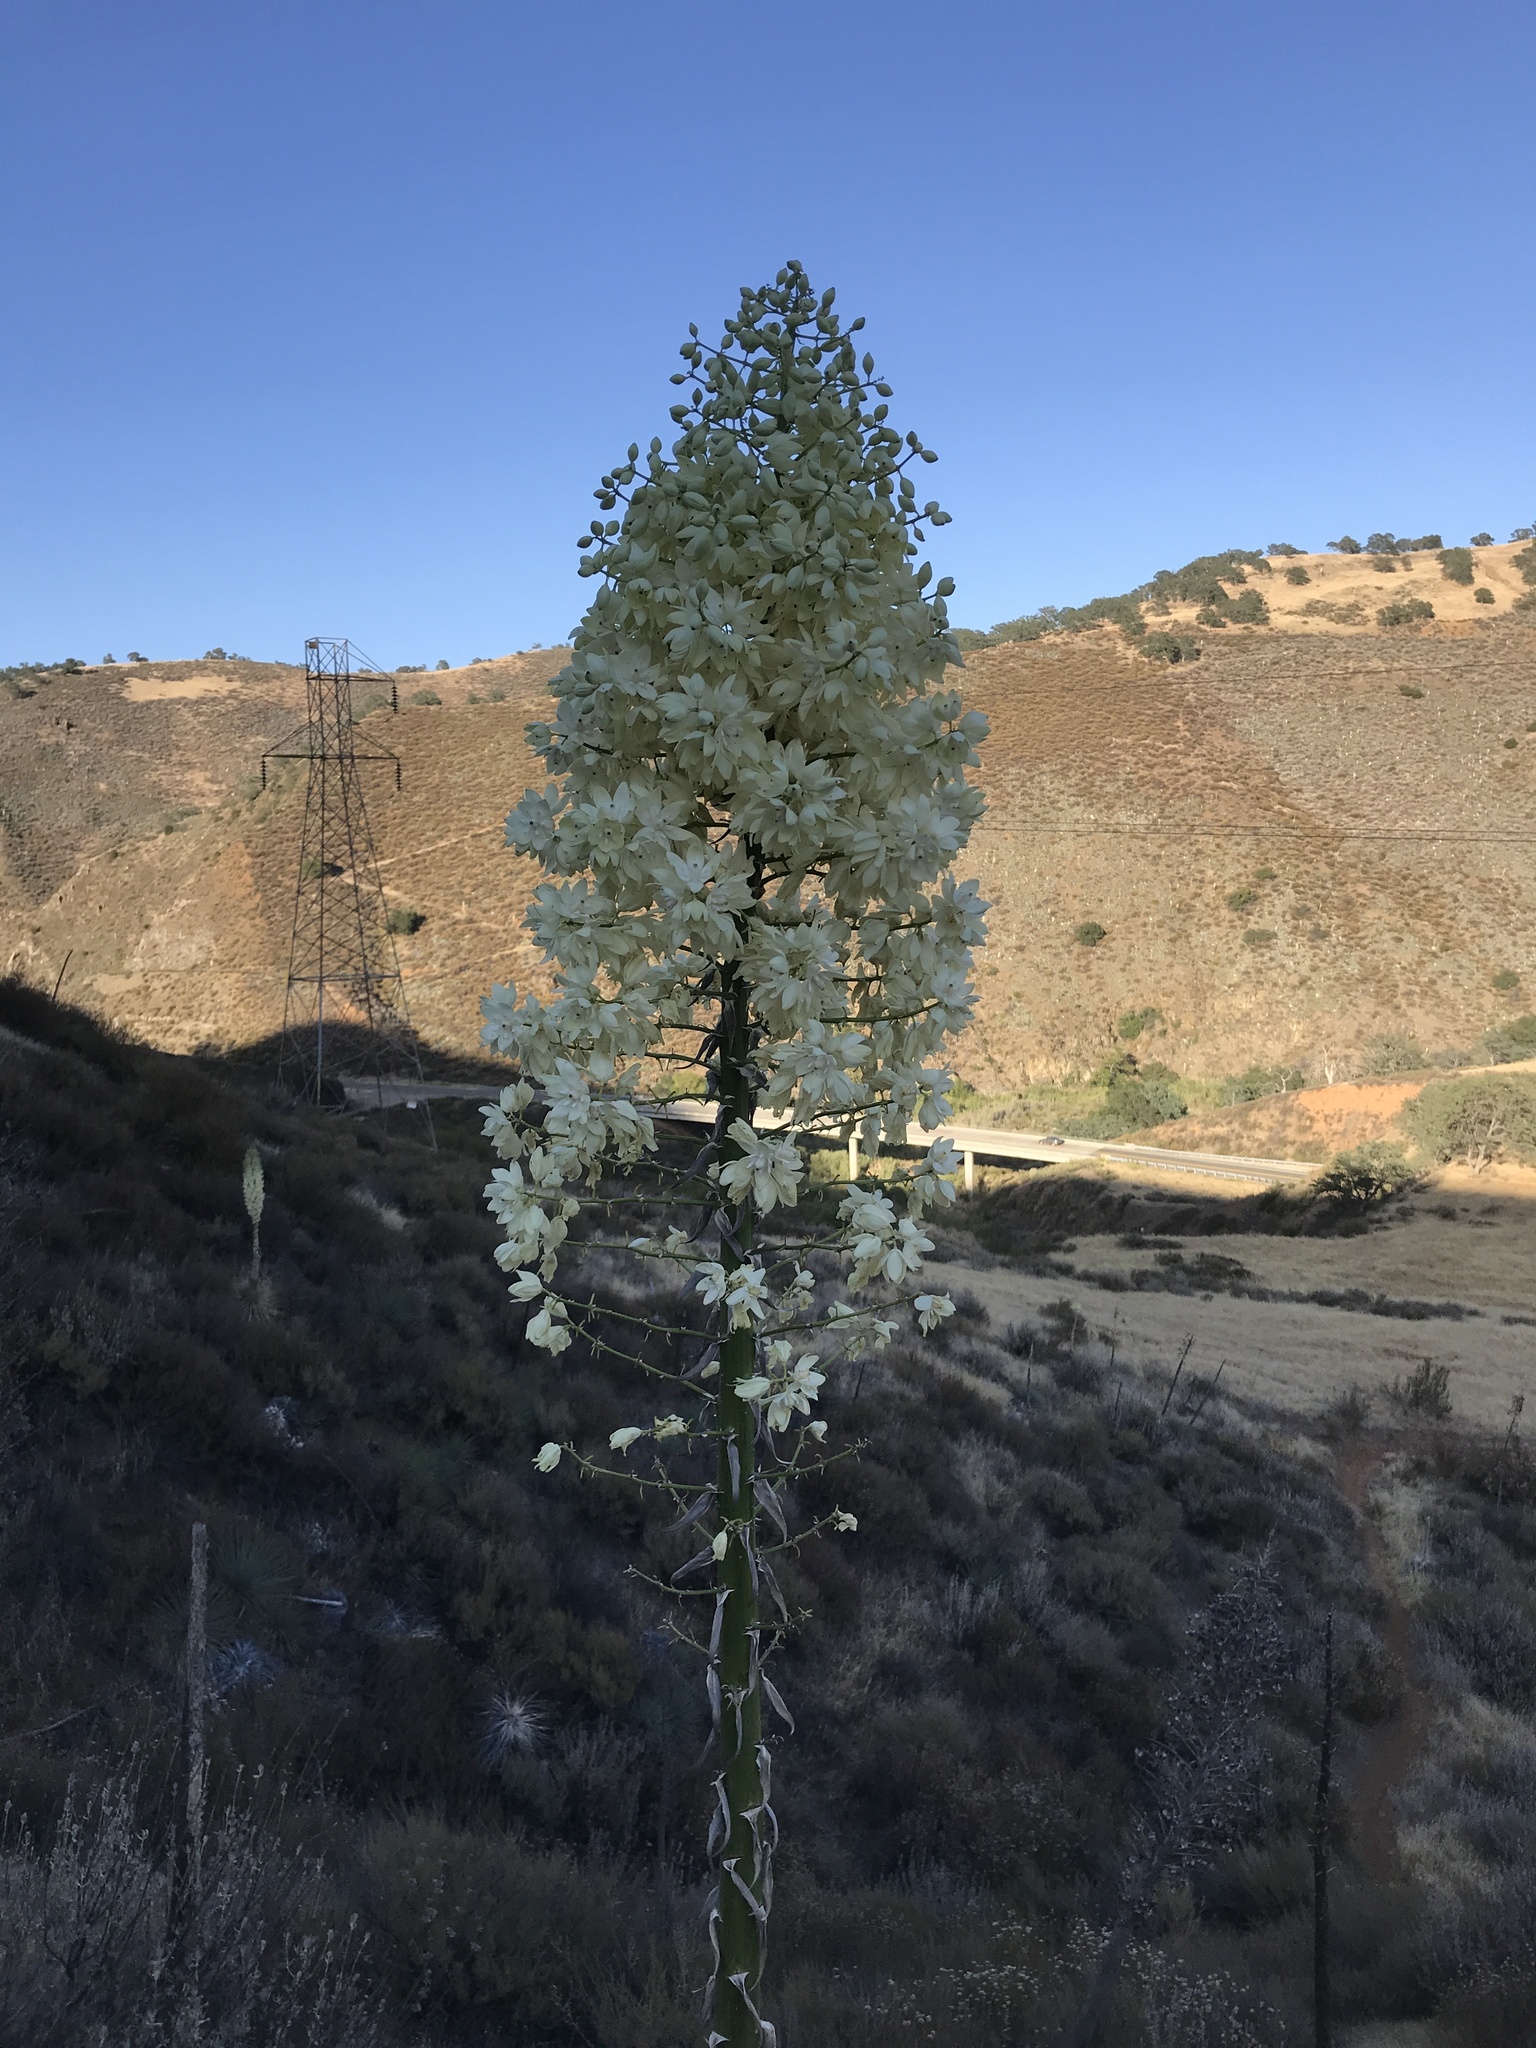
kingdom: Plantae
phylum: Tracheophyta
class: Liliopsida
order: Asparagales
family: Asparagaceae
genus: Hesperoyucca
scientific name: Hesperoyucca whipplei
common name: Our lord's-candle
